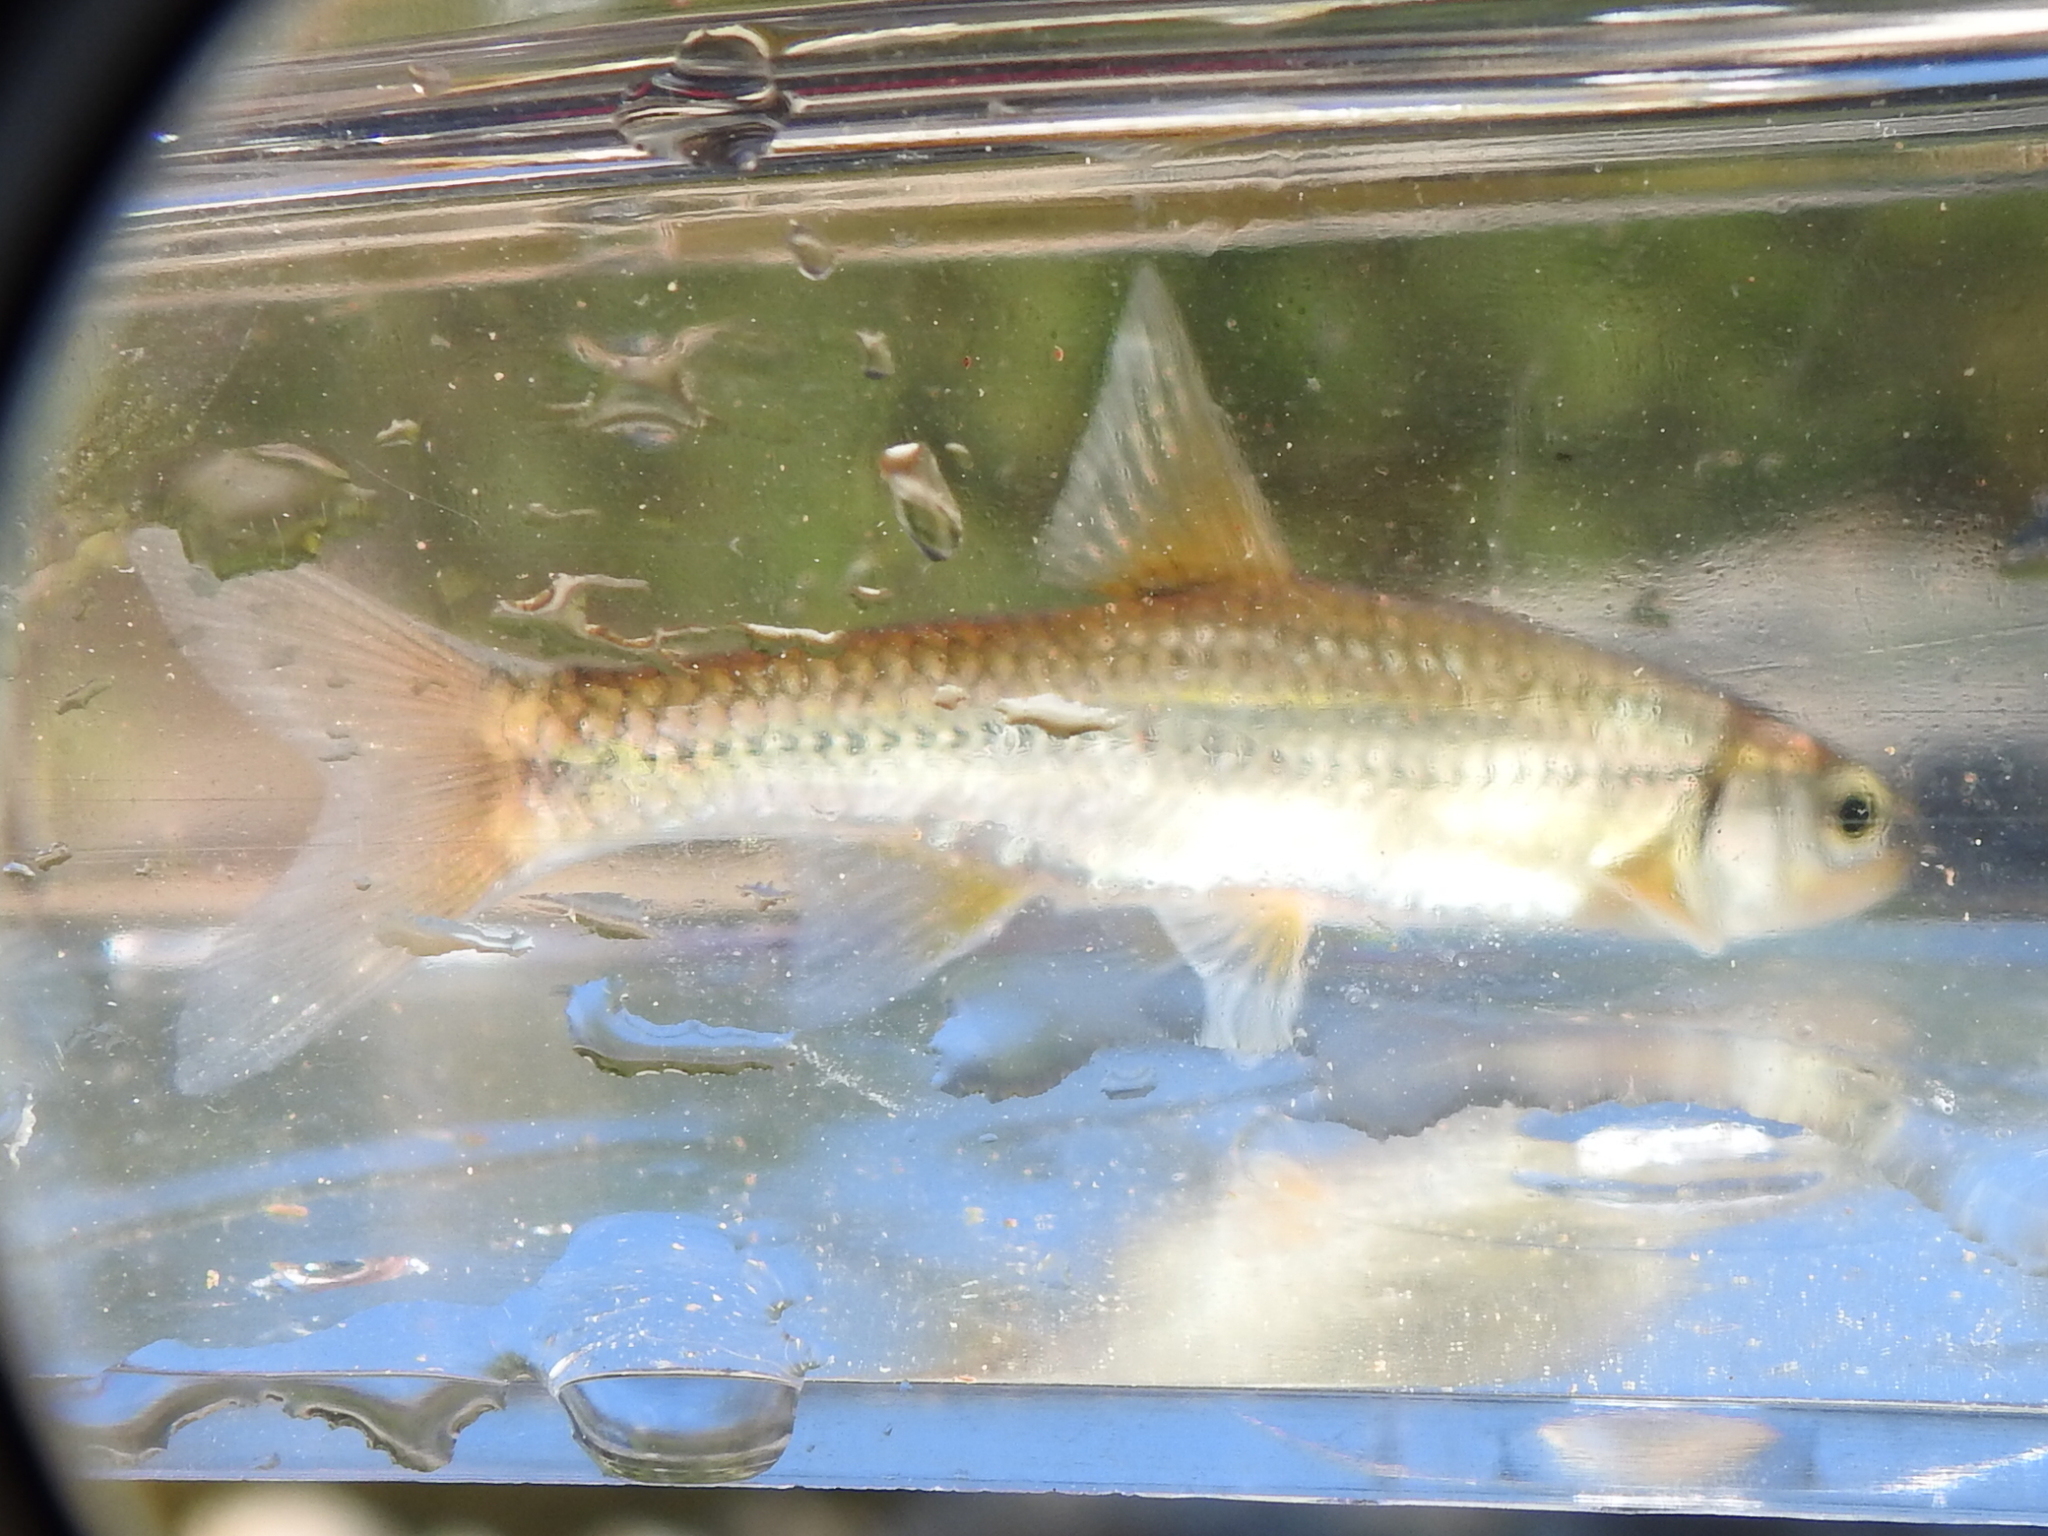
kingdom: Animalia
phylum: Chordata
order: Cypriniformes
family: Cyprinidae
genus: Notropis
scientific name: Notropis
